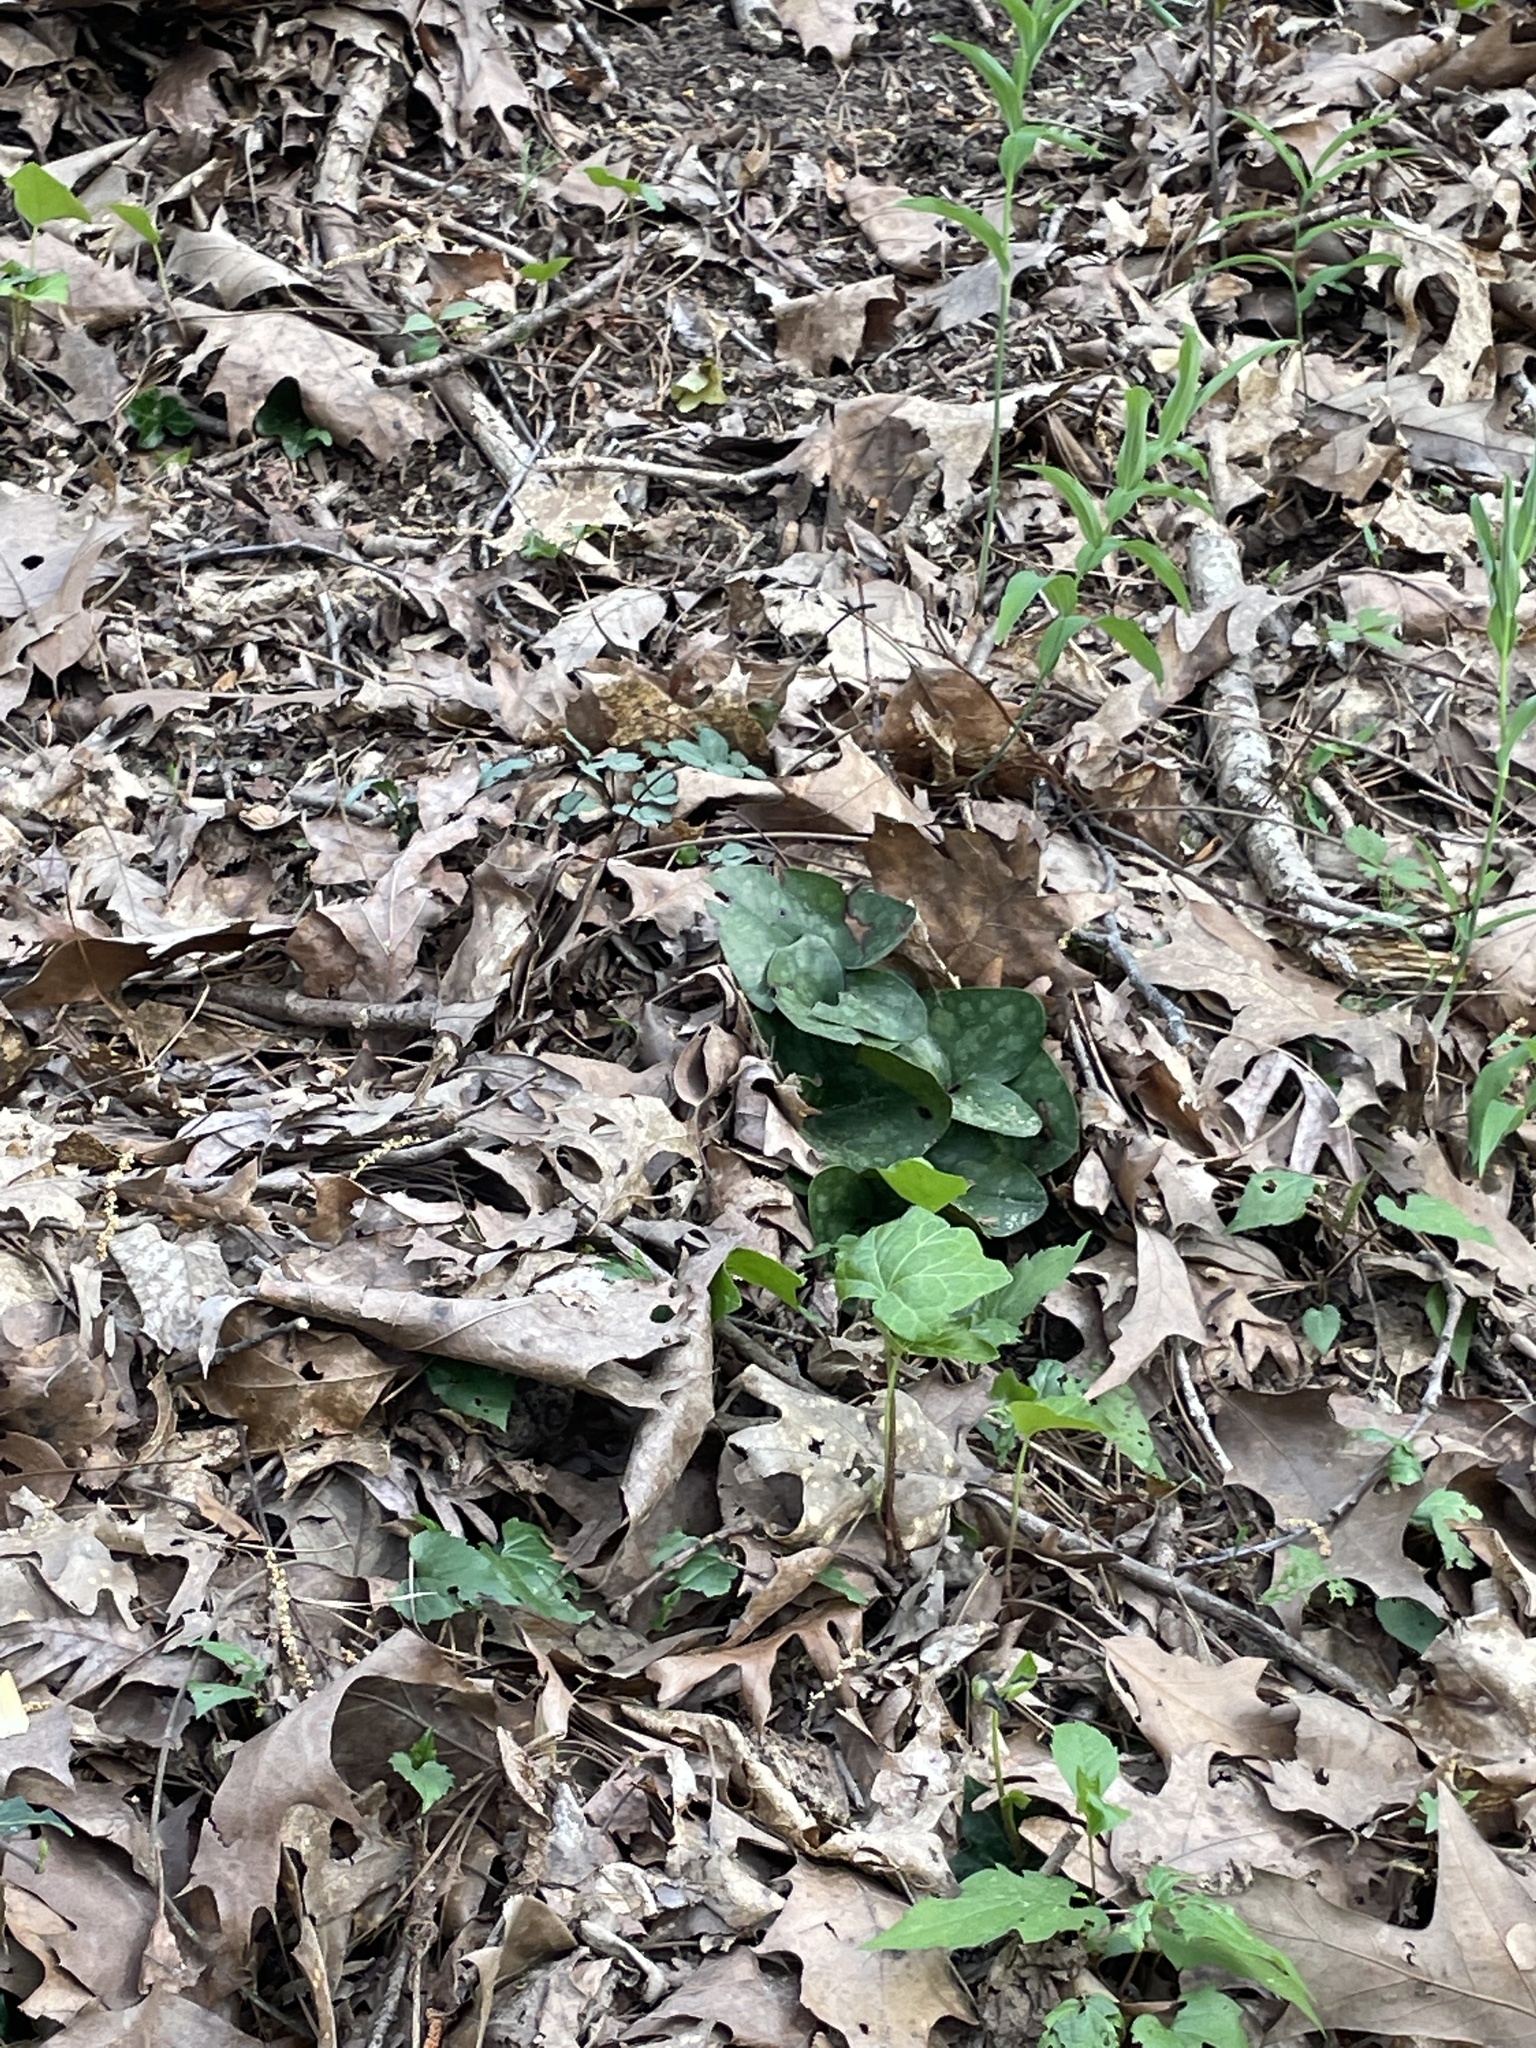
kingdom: Plantae
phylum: Tracheophyta
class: Magnoliopsida
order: Piperales
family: Aristolochiaceae
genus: Hexastylis
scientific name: Hexastylis arifolia
